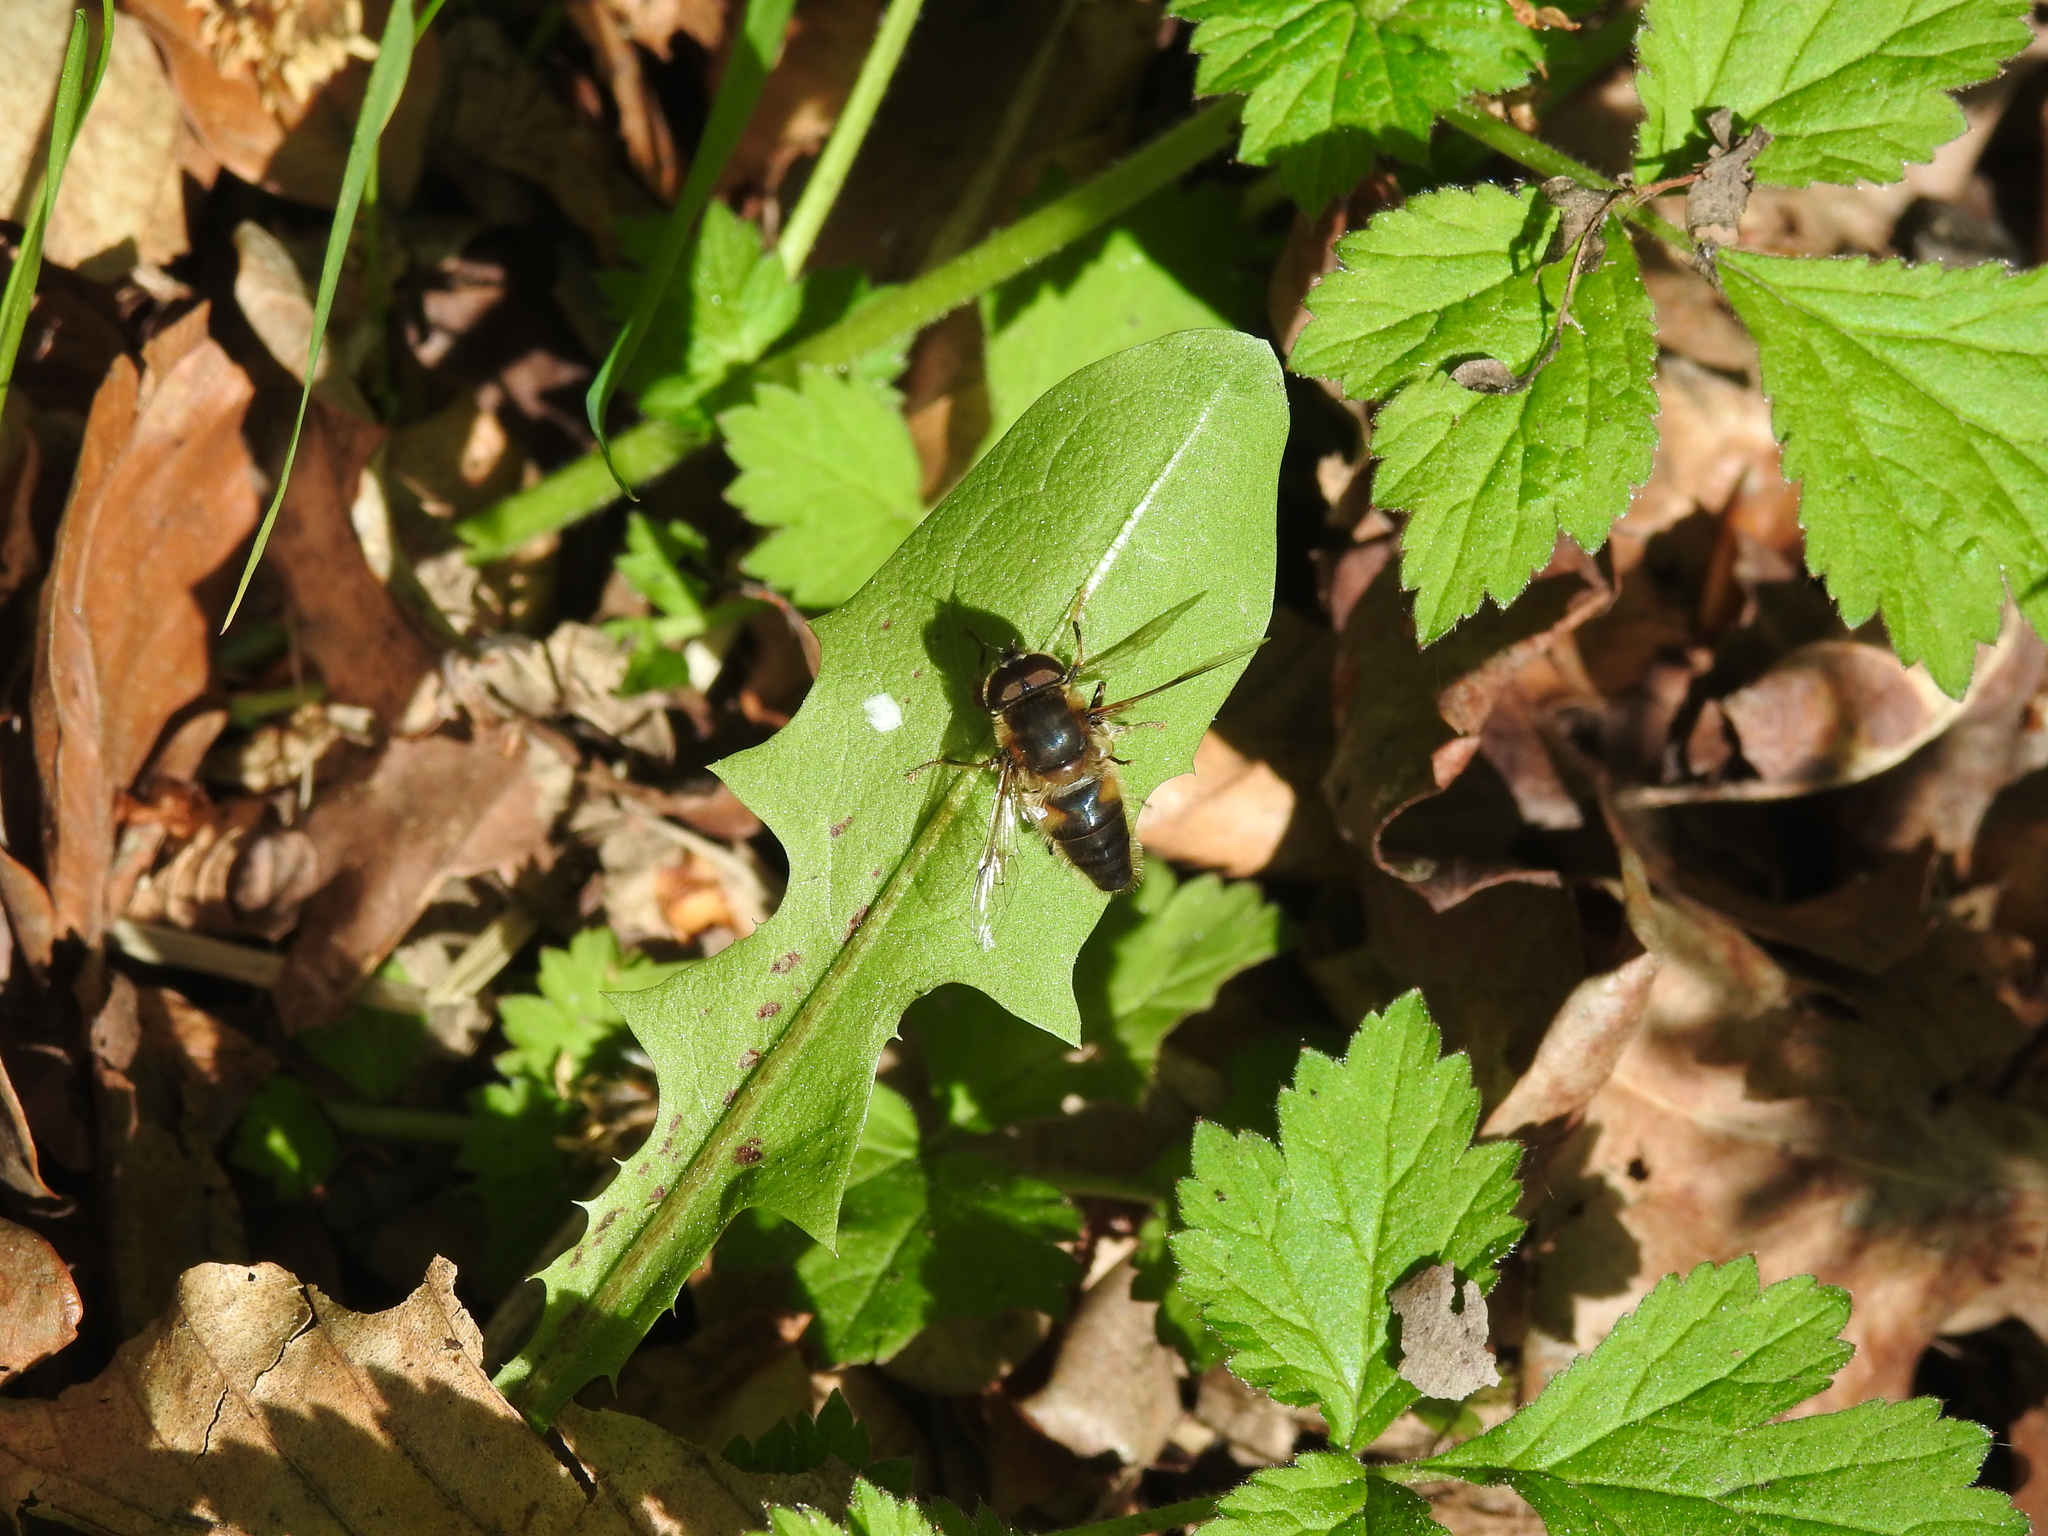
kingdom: Animalia
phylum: Arthropoda
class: Insecta
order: Diptera
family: Syrphidae
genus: Eristalis
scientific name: Eristalis pertinax
